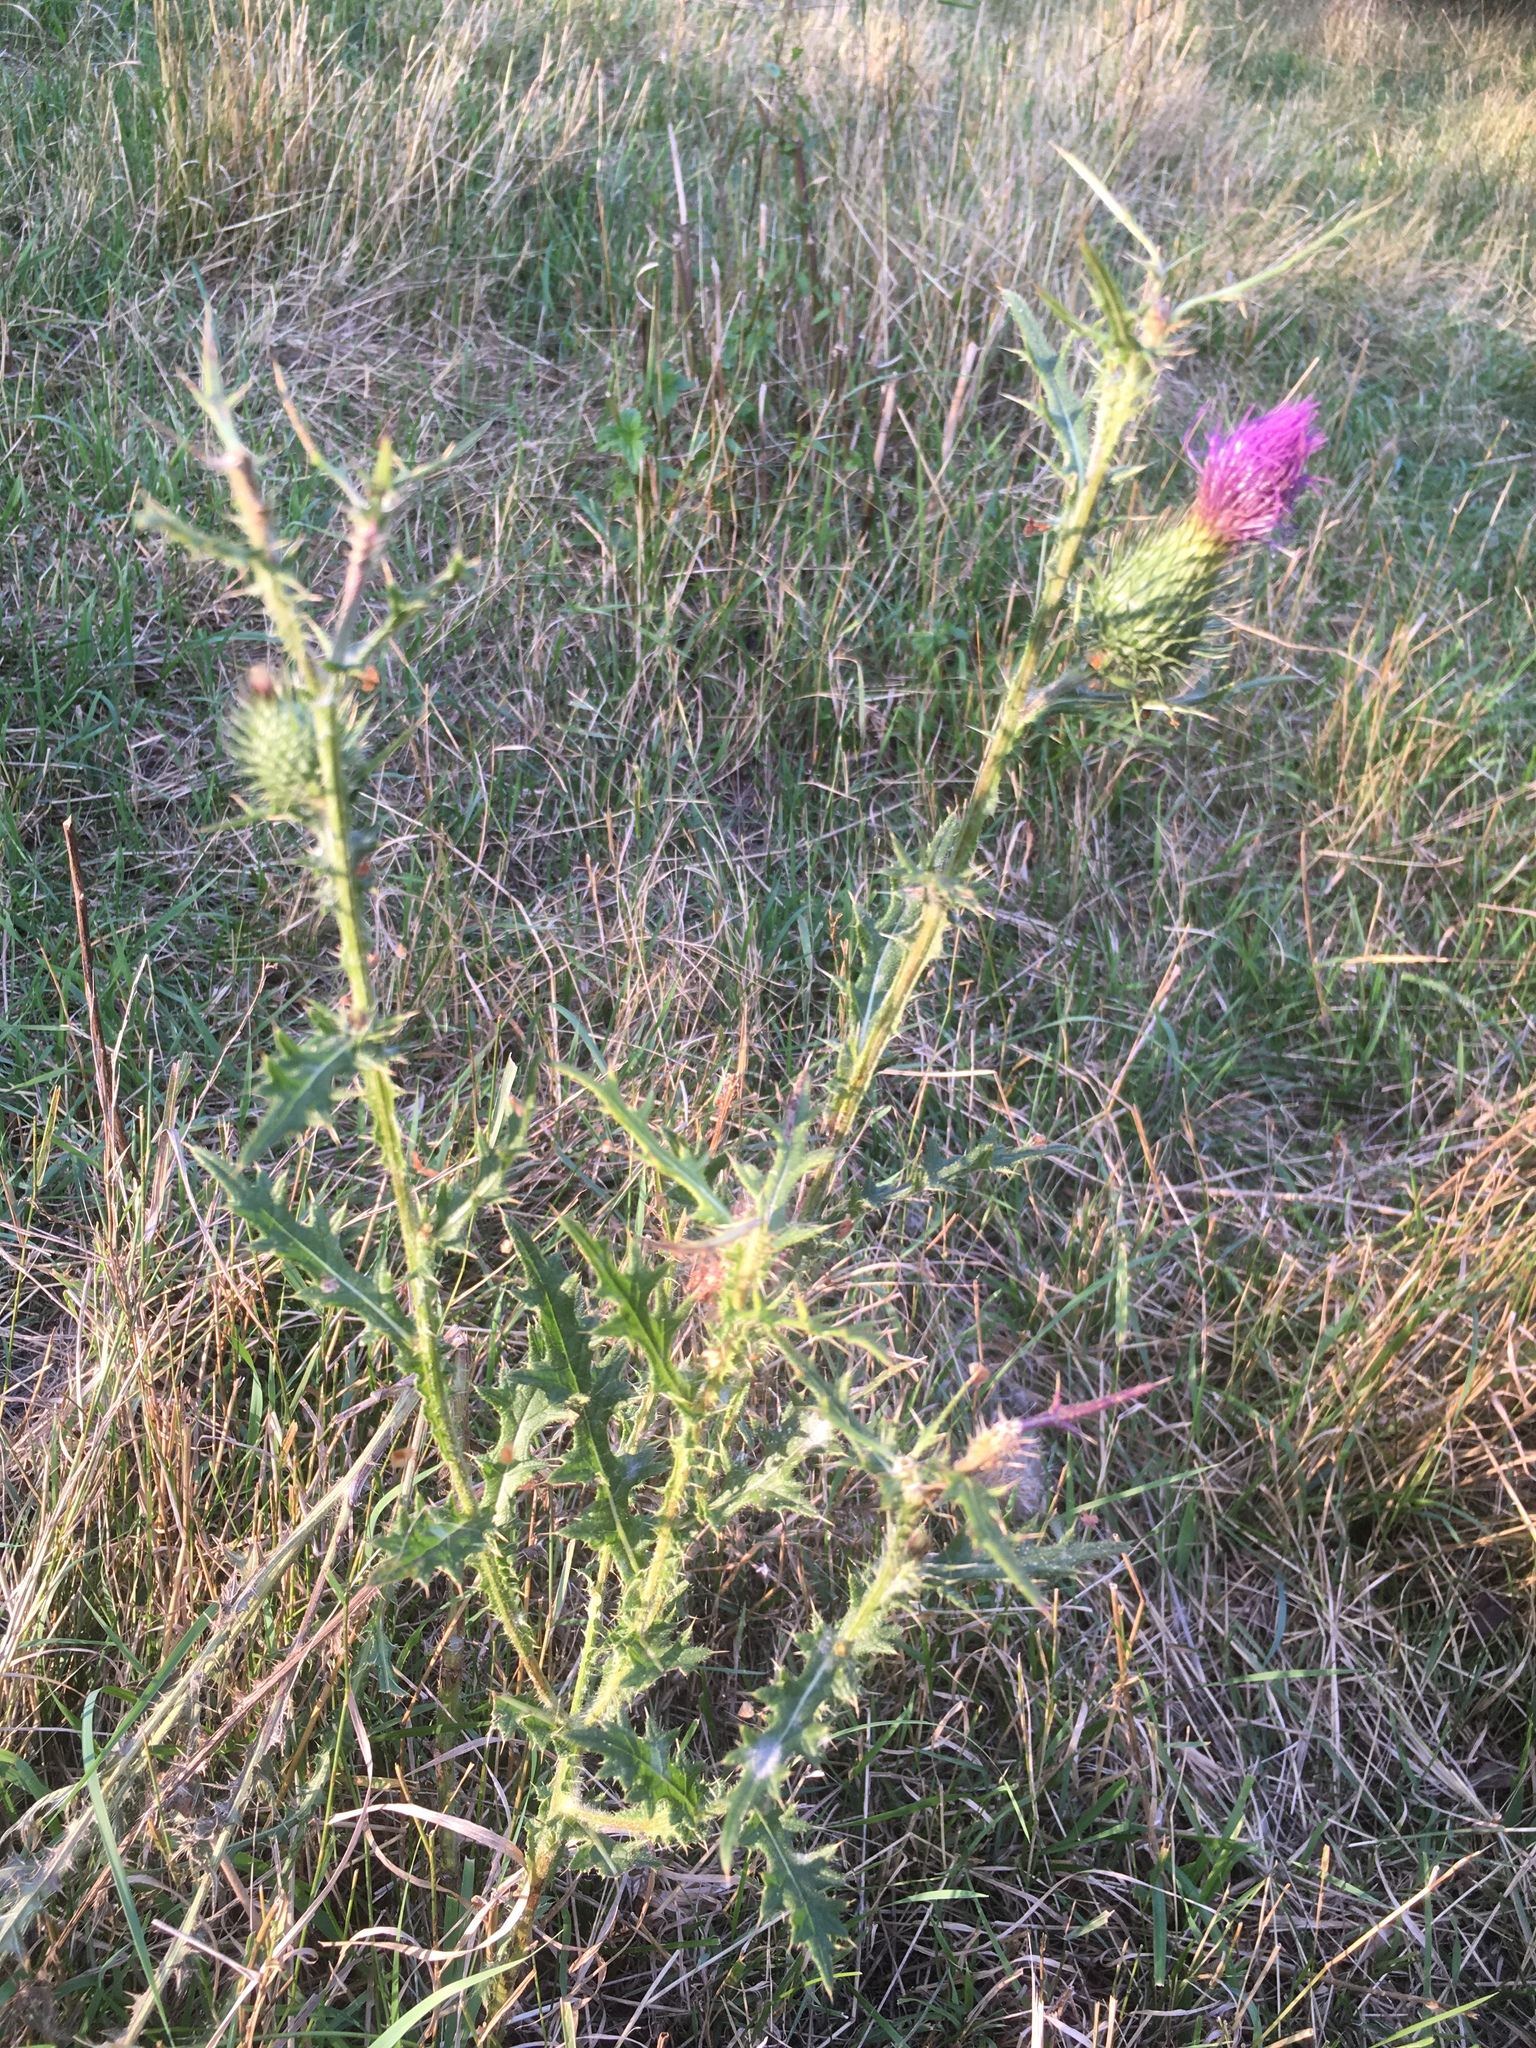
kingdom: Plantae
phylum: Tracheophyta
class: Magnoliopsida
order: Asterales
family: Asteraceae
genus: Cirsium
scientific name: Cirsium vulgare
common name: Bull thistle
